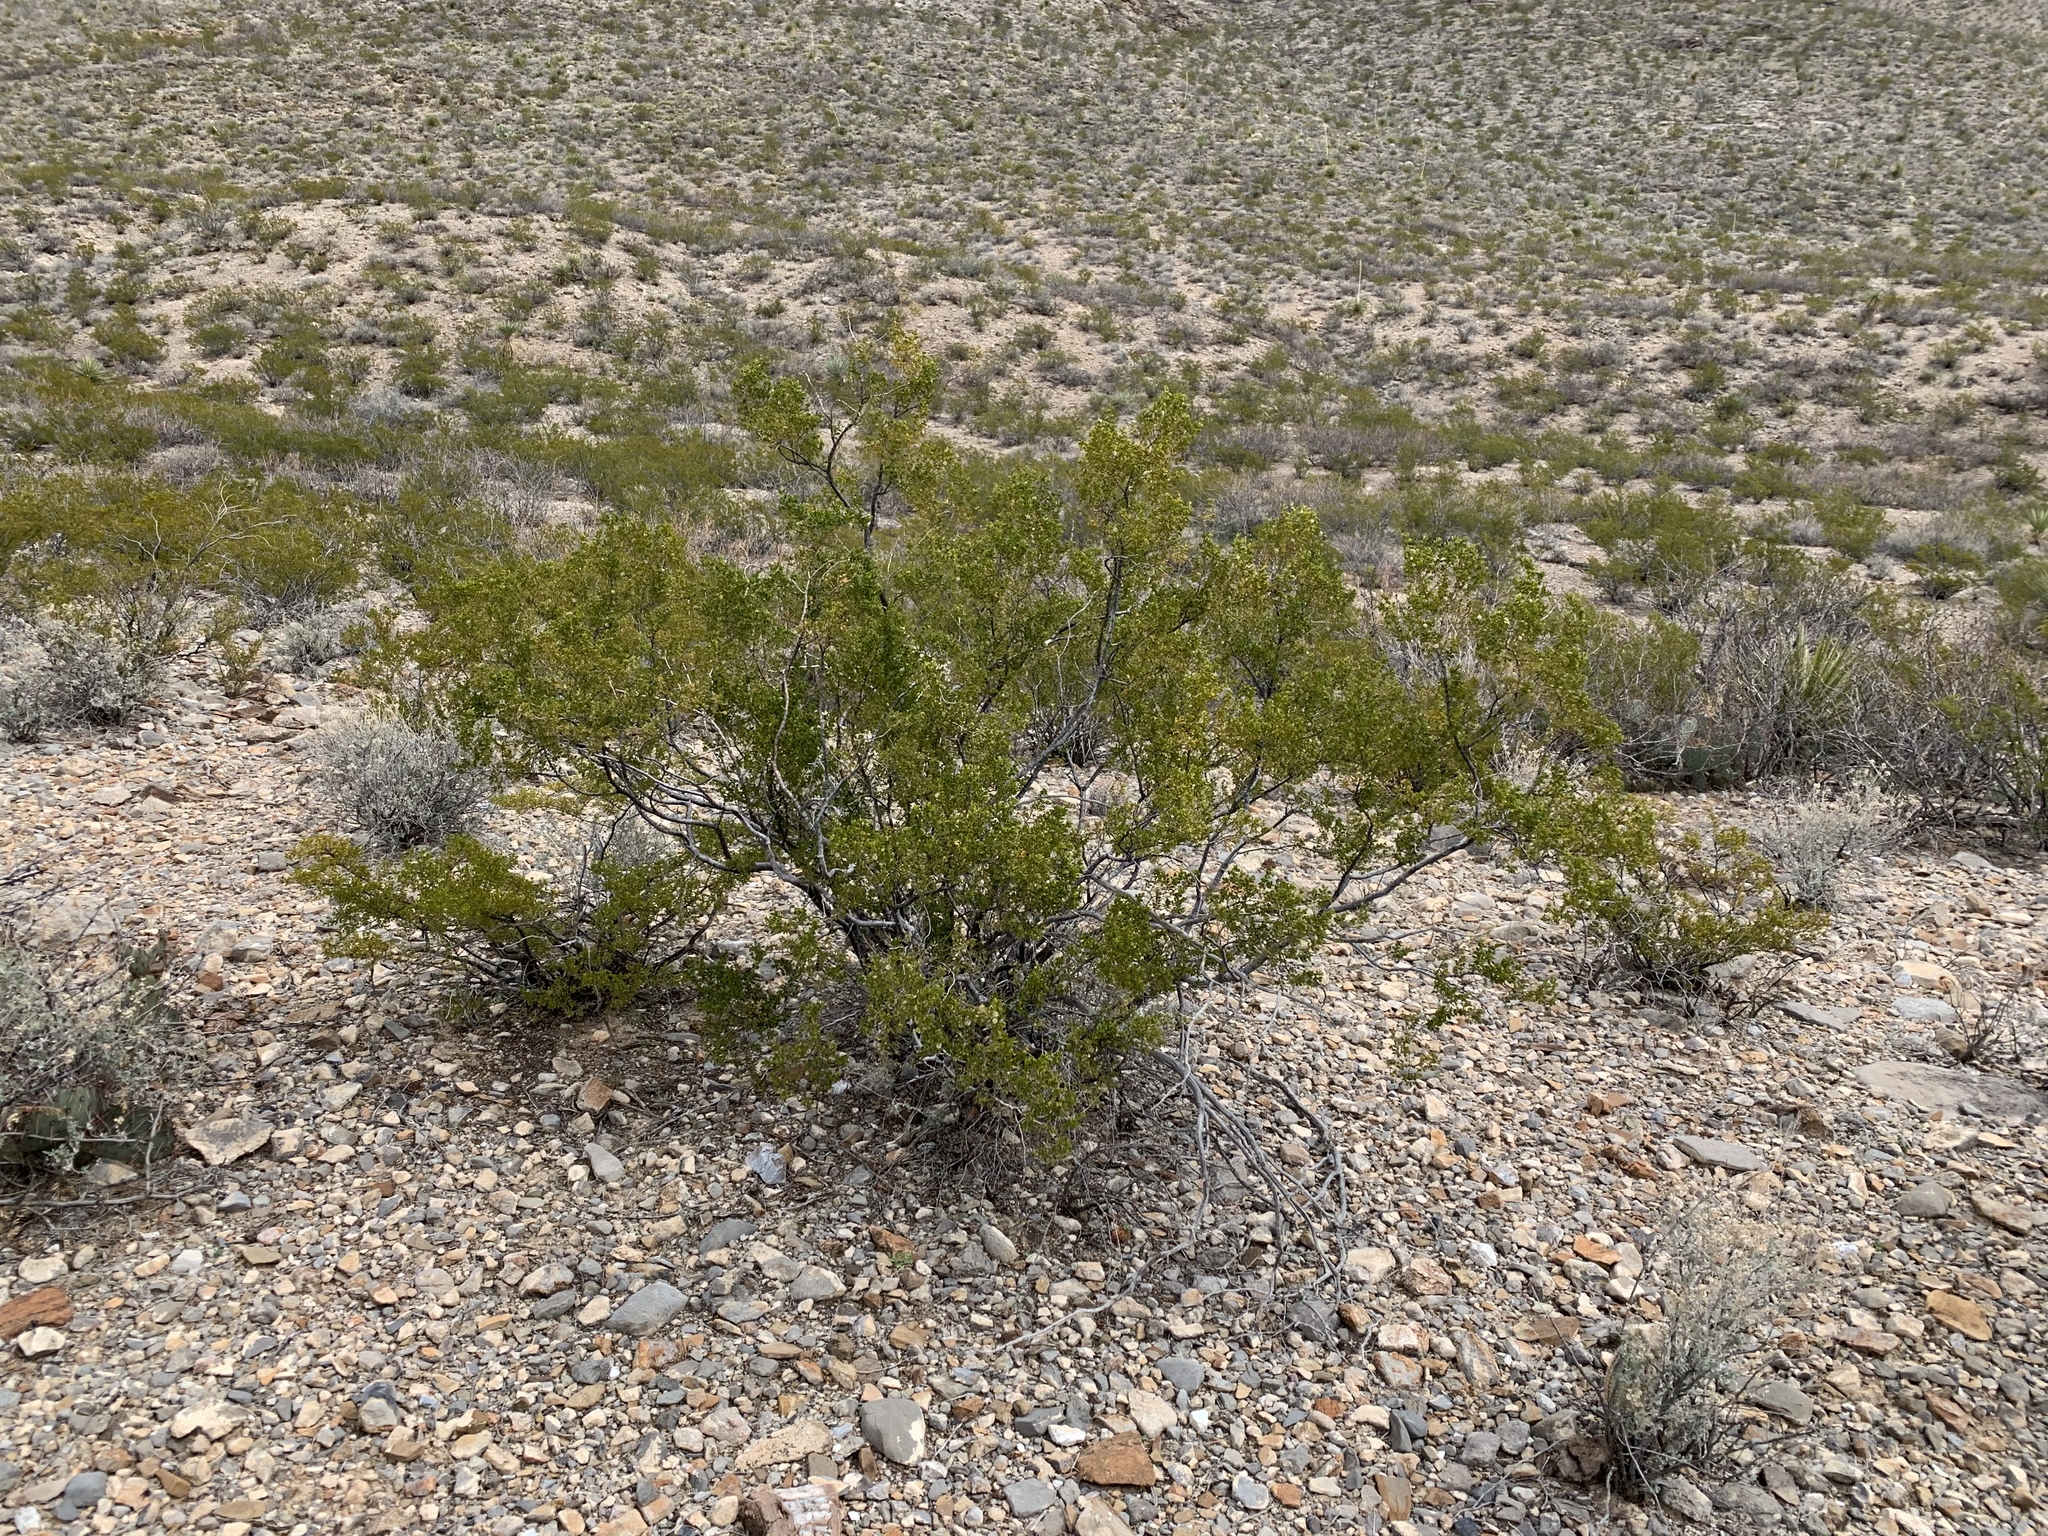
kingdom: Plantae
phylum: Tracheophyta
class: Magnoliopsida
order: Zygophyllales
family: Zygophyllaceae
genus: Larrea
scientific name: Larrea tridentata
